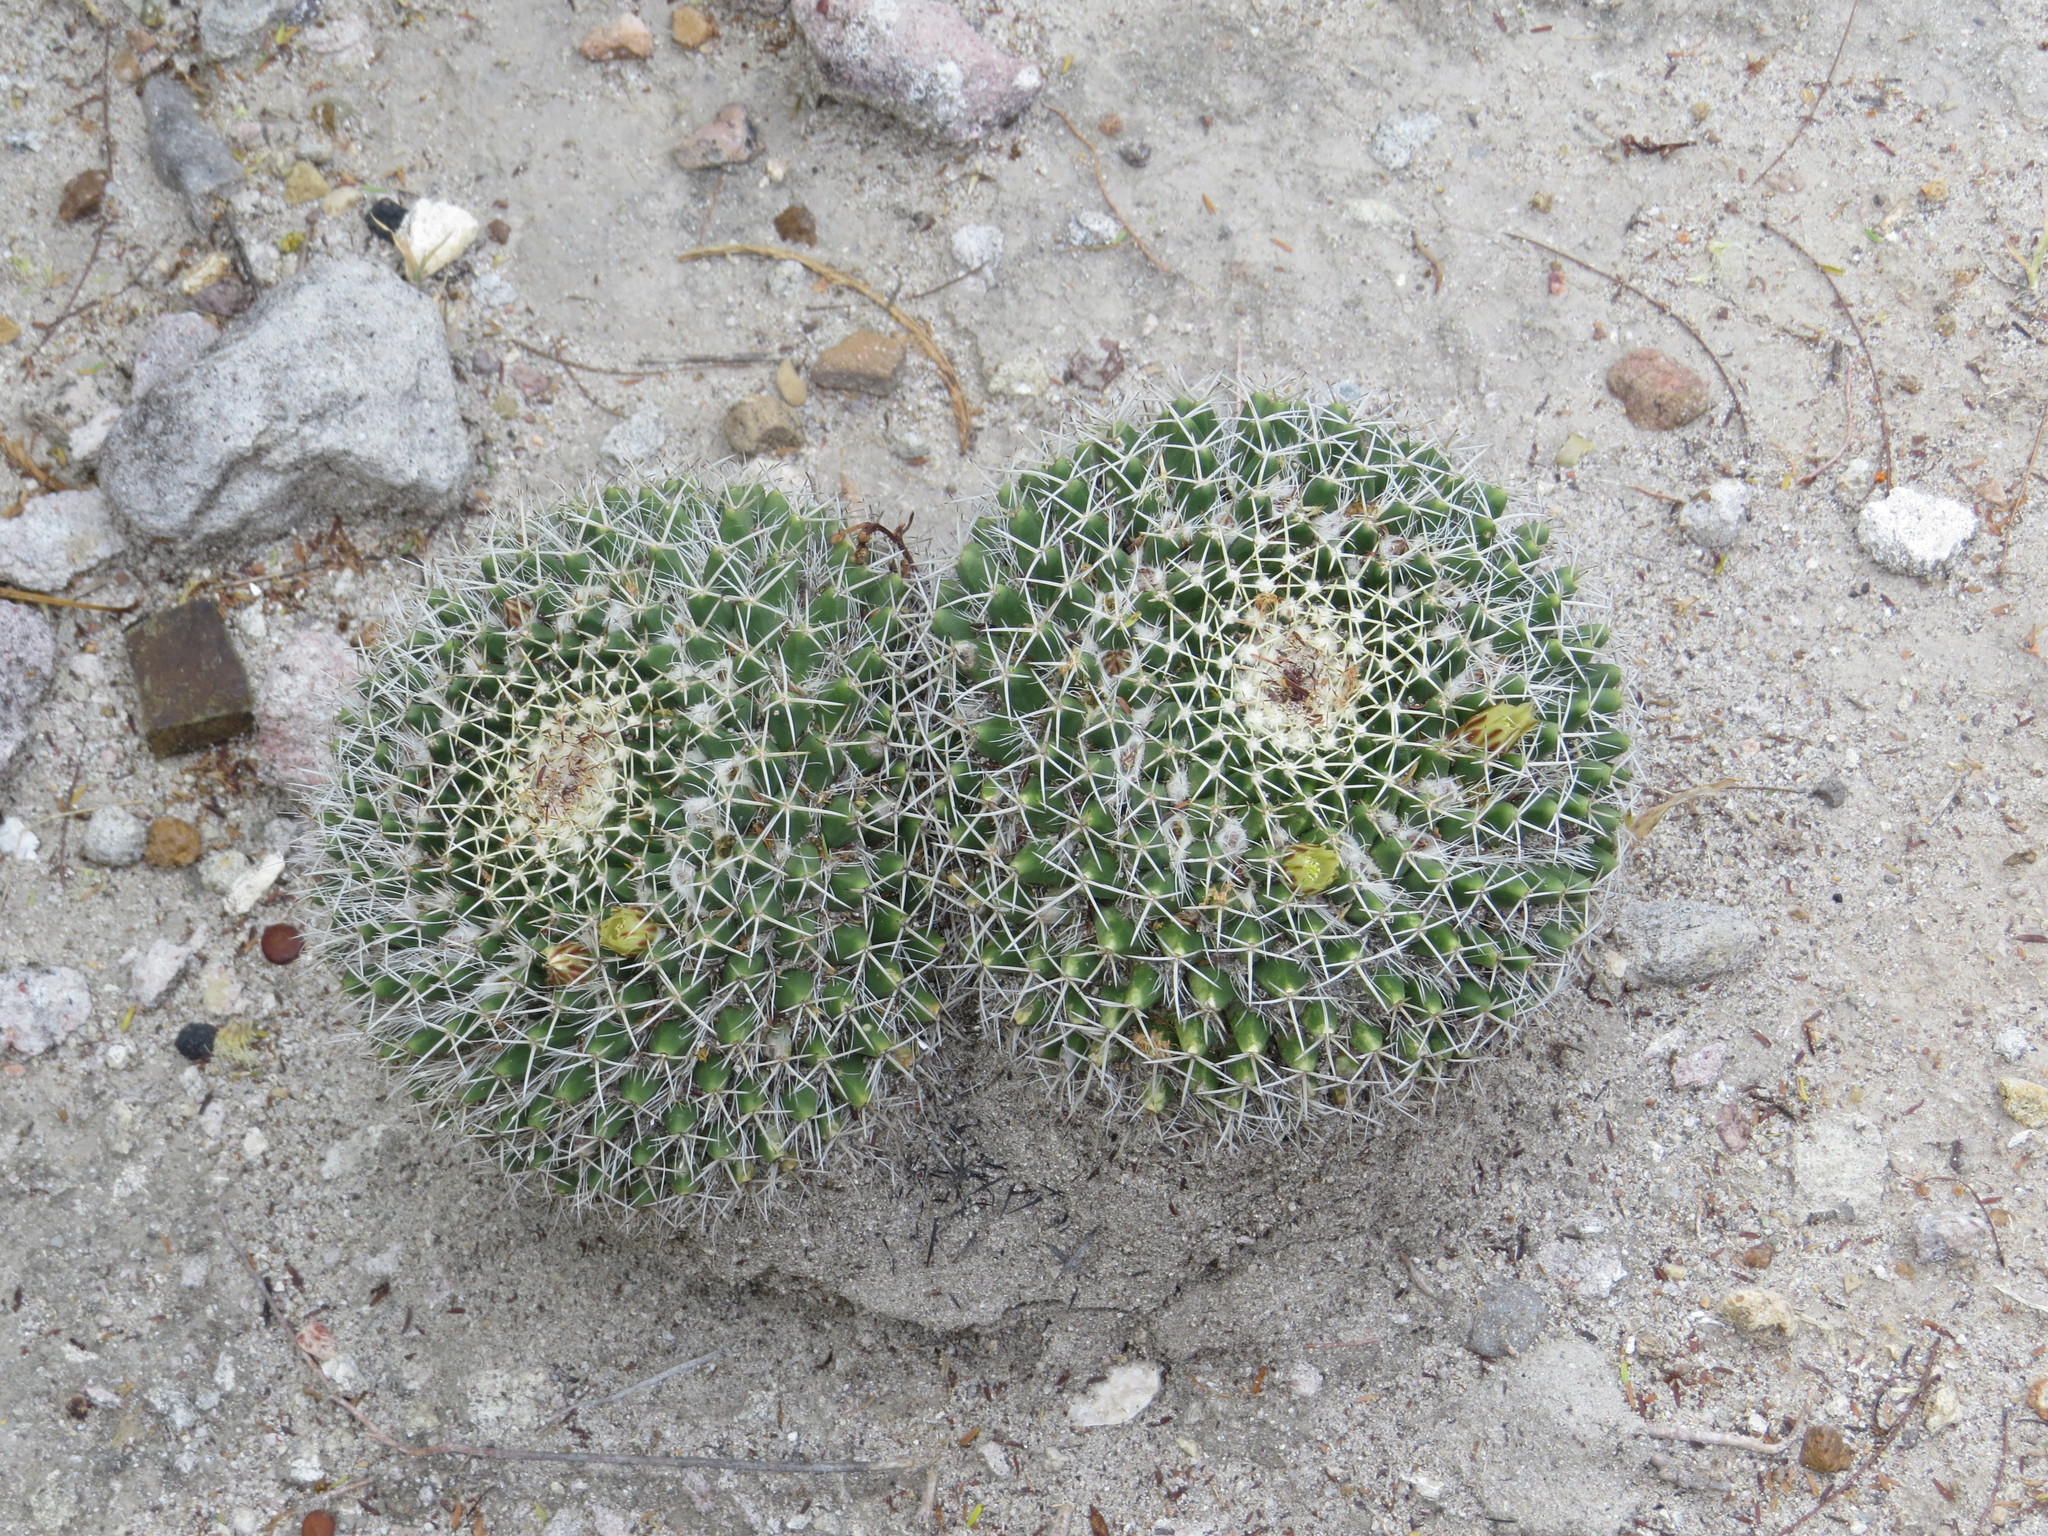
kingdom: Plantae
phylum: Tracheophyta
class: Magnoliopsida
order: Caryophyllales
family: Cactaceae
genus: Mammillaria
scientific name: Mammillaria karwinskiana
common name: Royal cross
